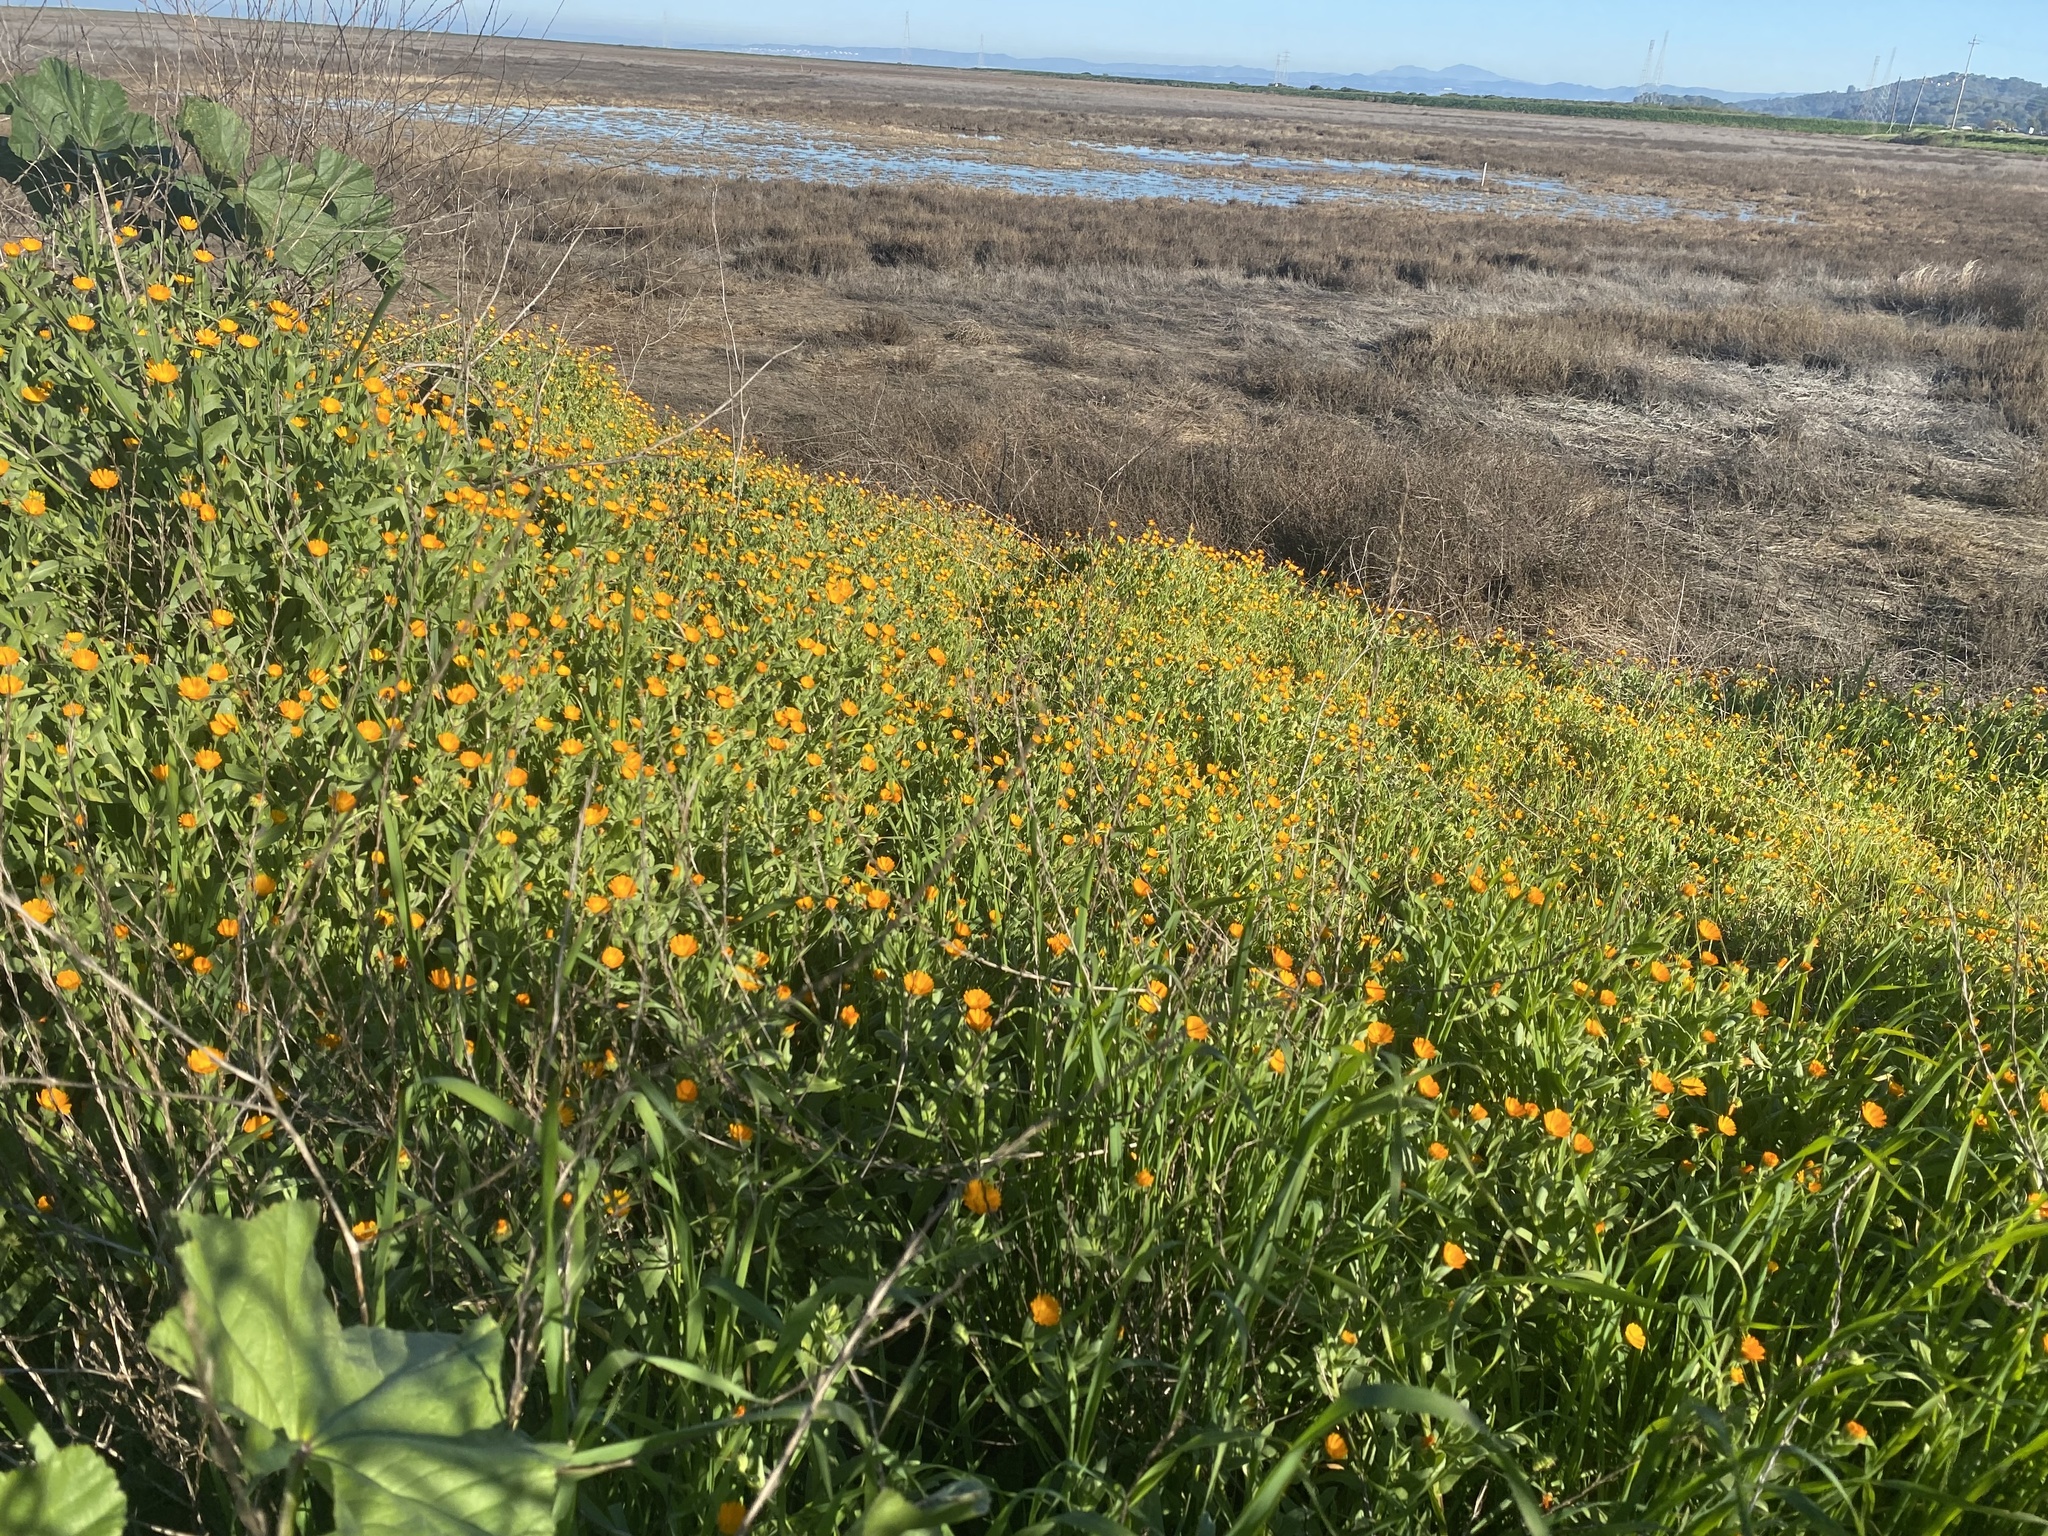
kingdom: Plantae
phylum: Tracheophyta
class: Magnoliopsida
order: Asterales
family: Asteraceae
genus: Calendula
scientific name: Calendula arvensis
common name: Field marigold
